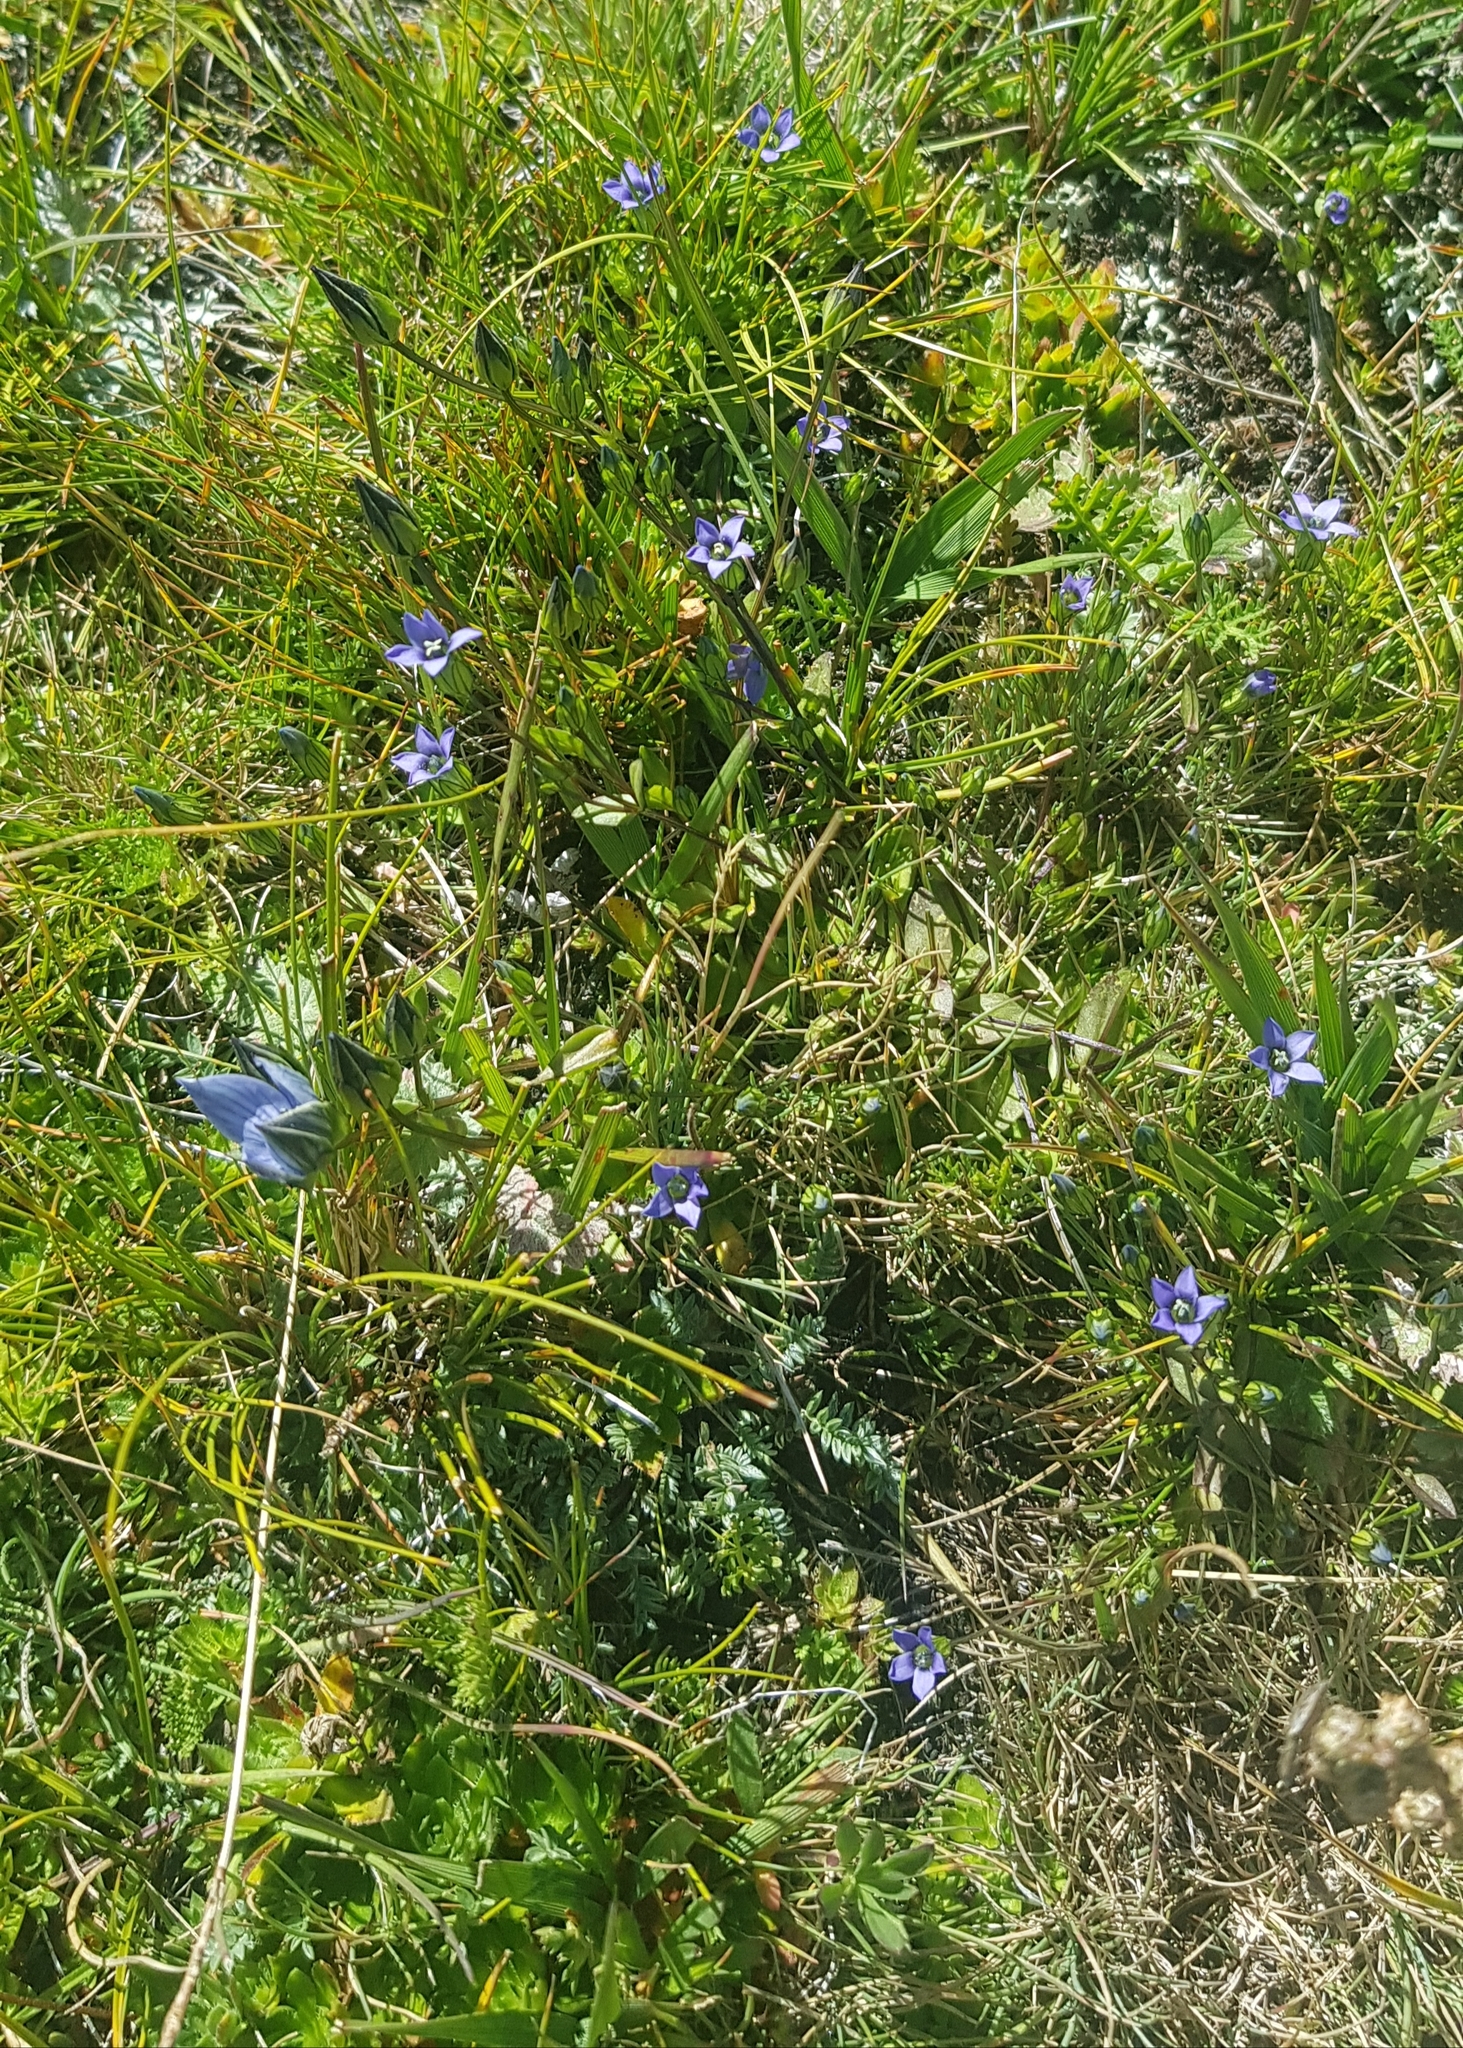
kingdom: Plantae
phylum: Tracheophyta
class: Magnoliopsida
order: Gentianales
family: Gentianaceae
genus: Gentiana
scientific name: Gentiana prostrata
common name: Moss gentian
